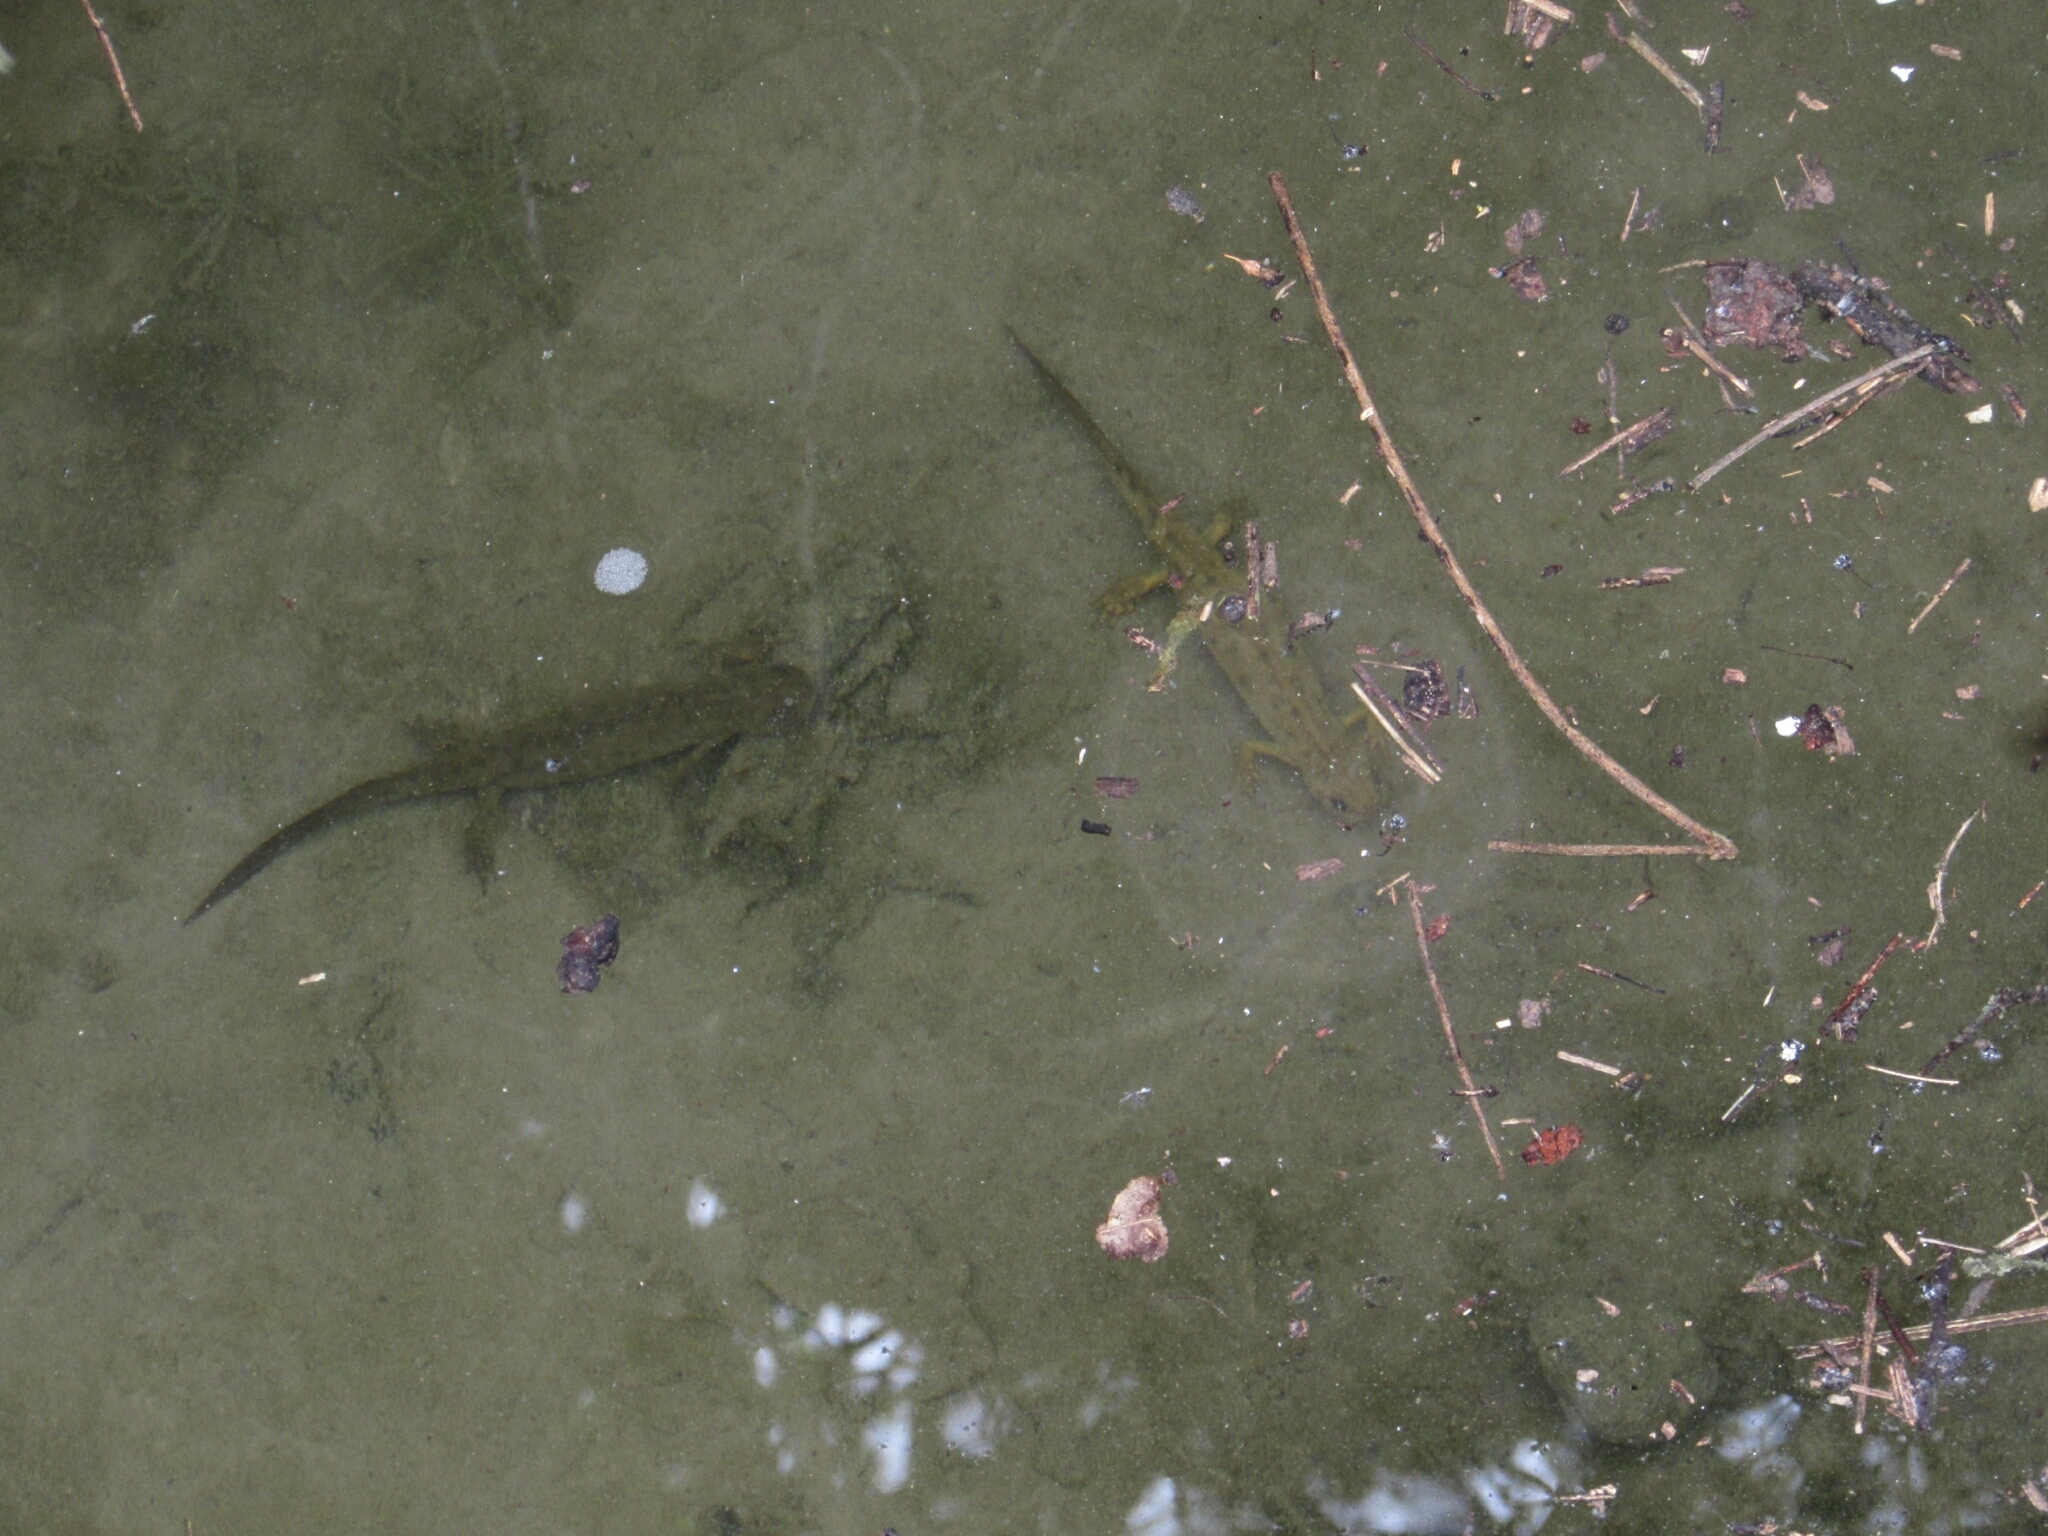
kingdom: Animalia
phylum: Chordata
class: Amphibia
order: Caudata
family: Salamandridae
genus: Triturus
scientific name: Triturus carnifex
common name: Italian crested newt
